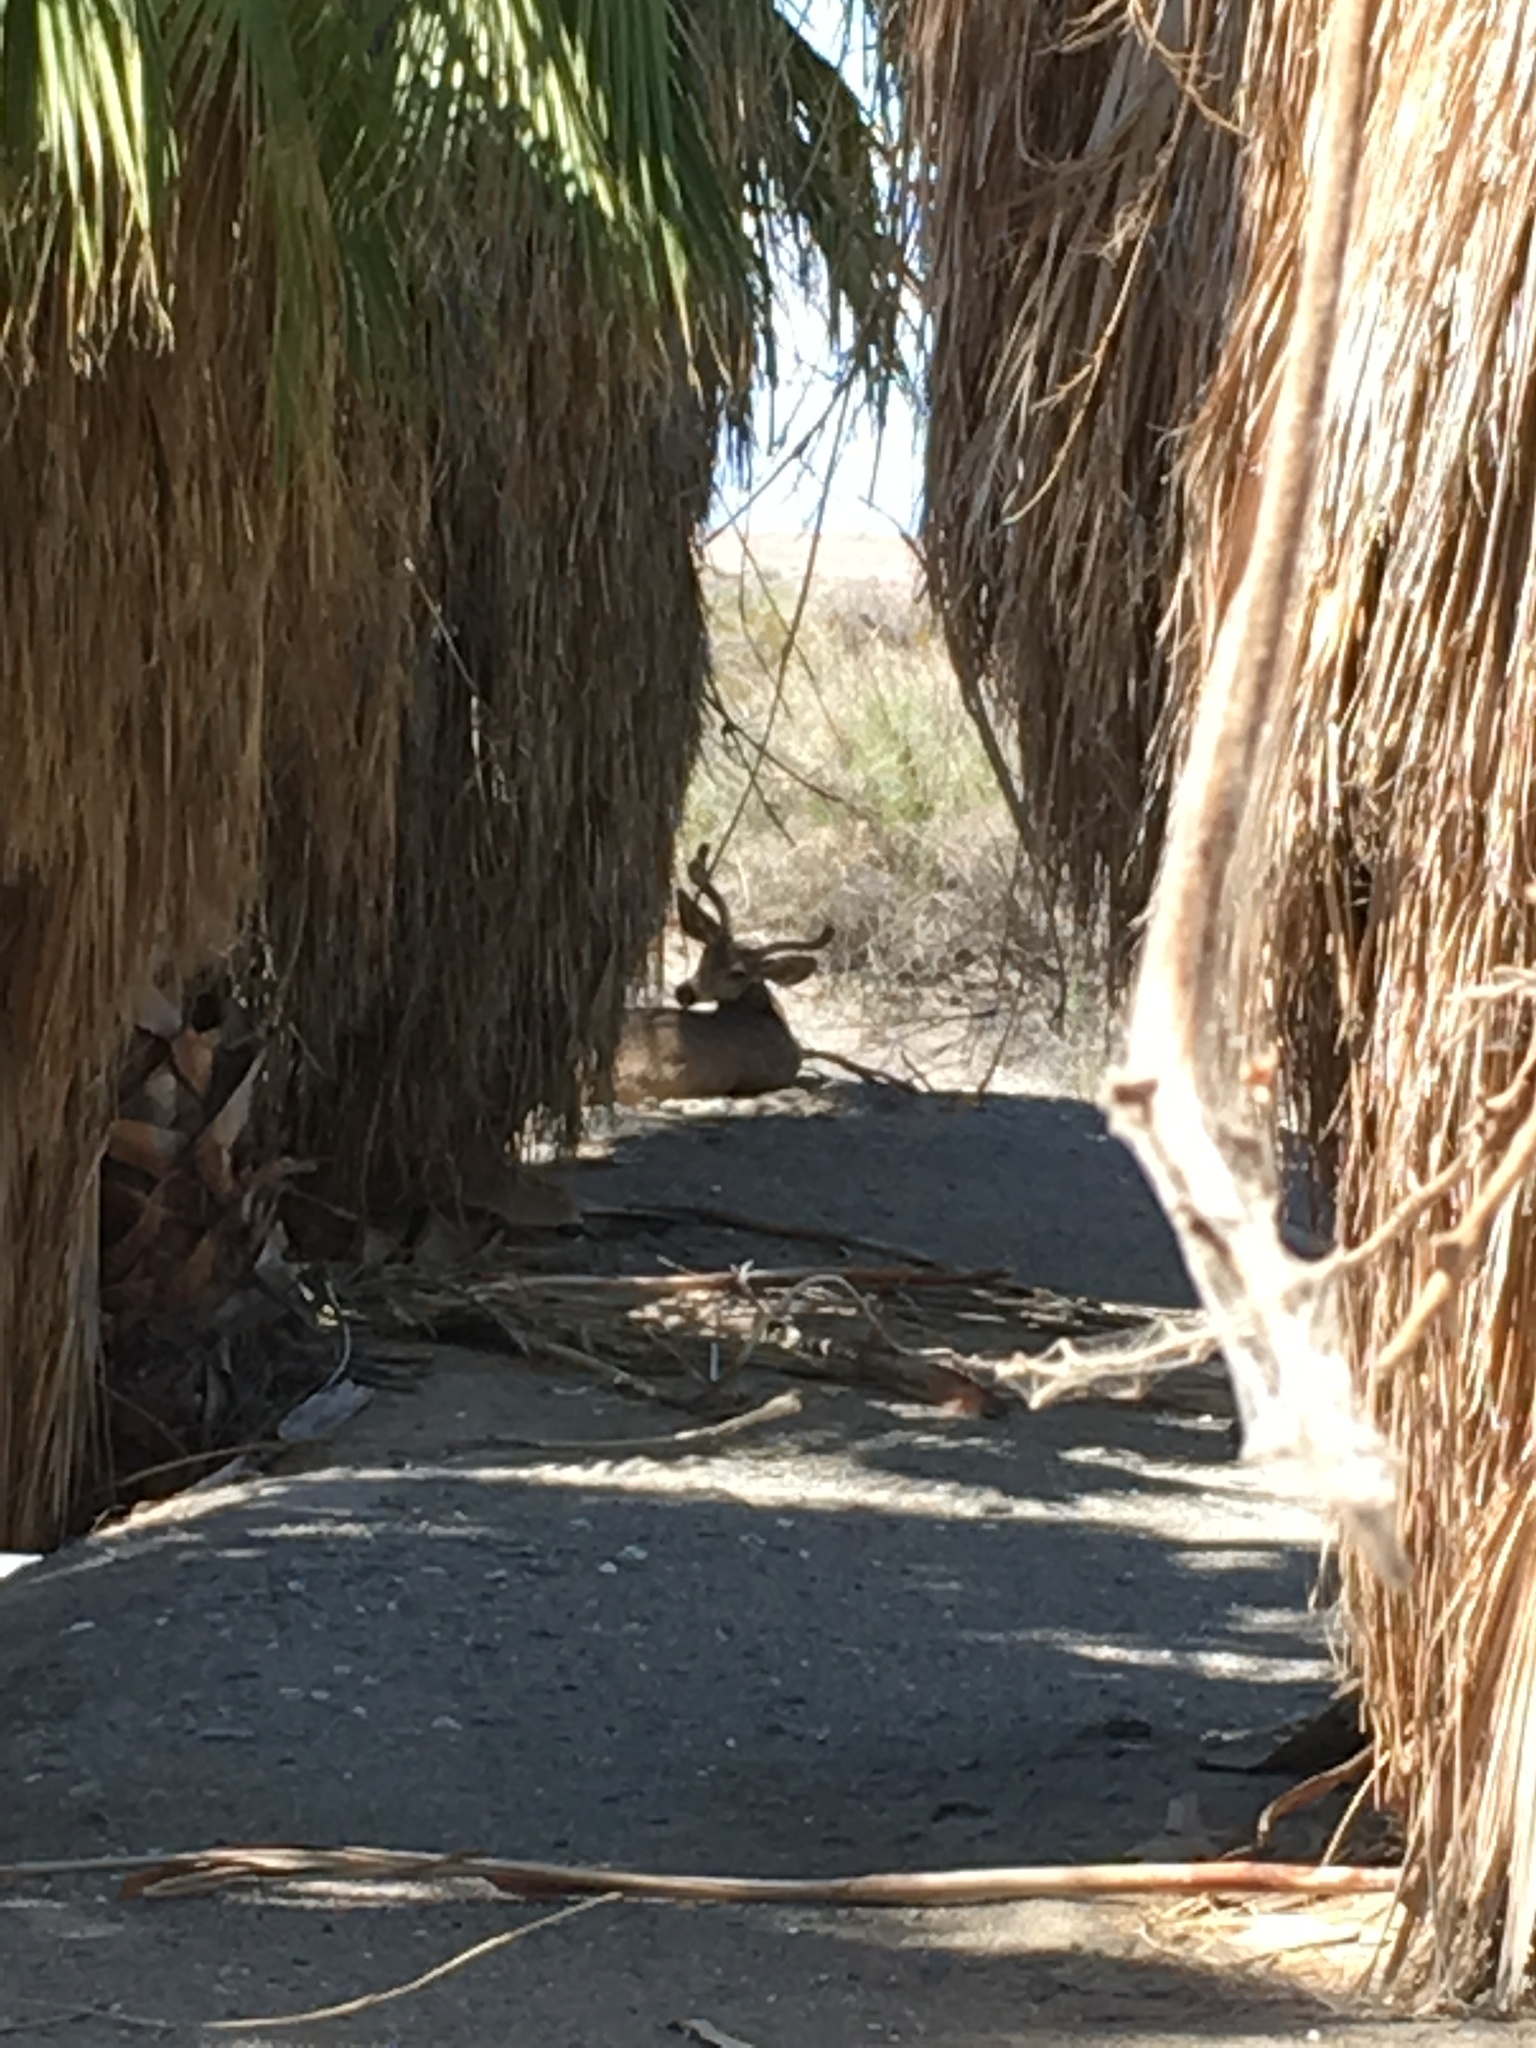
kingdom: Animalia
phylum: Chordata
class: Mammalia
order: Artiodactyla
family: Cervidae
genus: Odocoileus
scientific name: Odocoileus hemionus
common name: Mule deer
